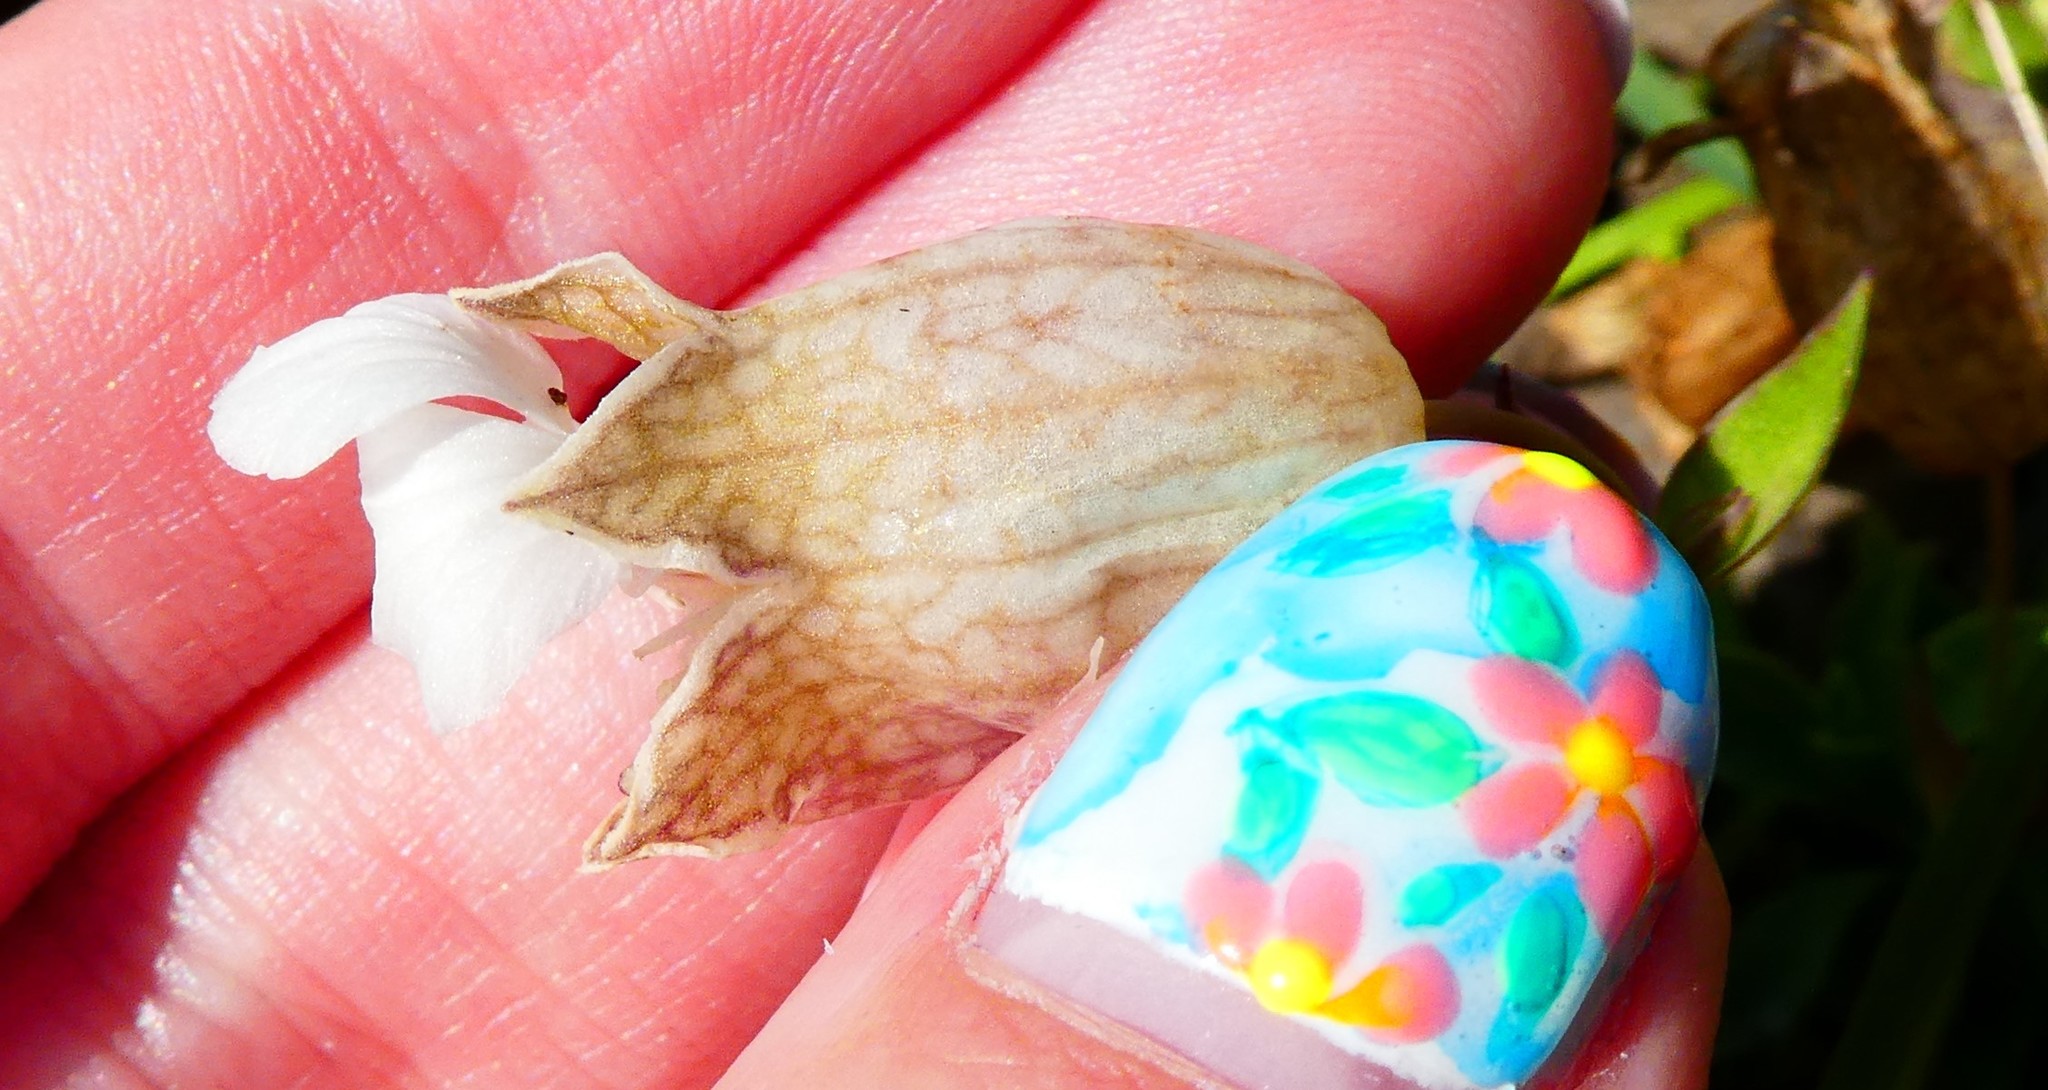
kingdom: Plantae
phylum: Tracheophyta
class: Magnoliopsida
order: Caryophyllales
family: Caryophyllaceae
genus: Silene
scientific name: Silene uniflora
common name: Sea campion
